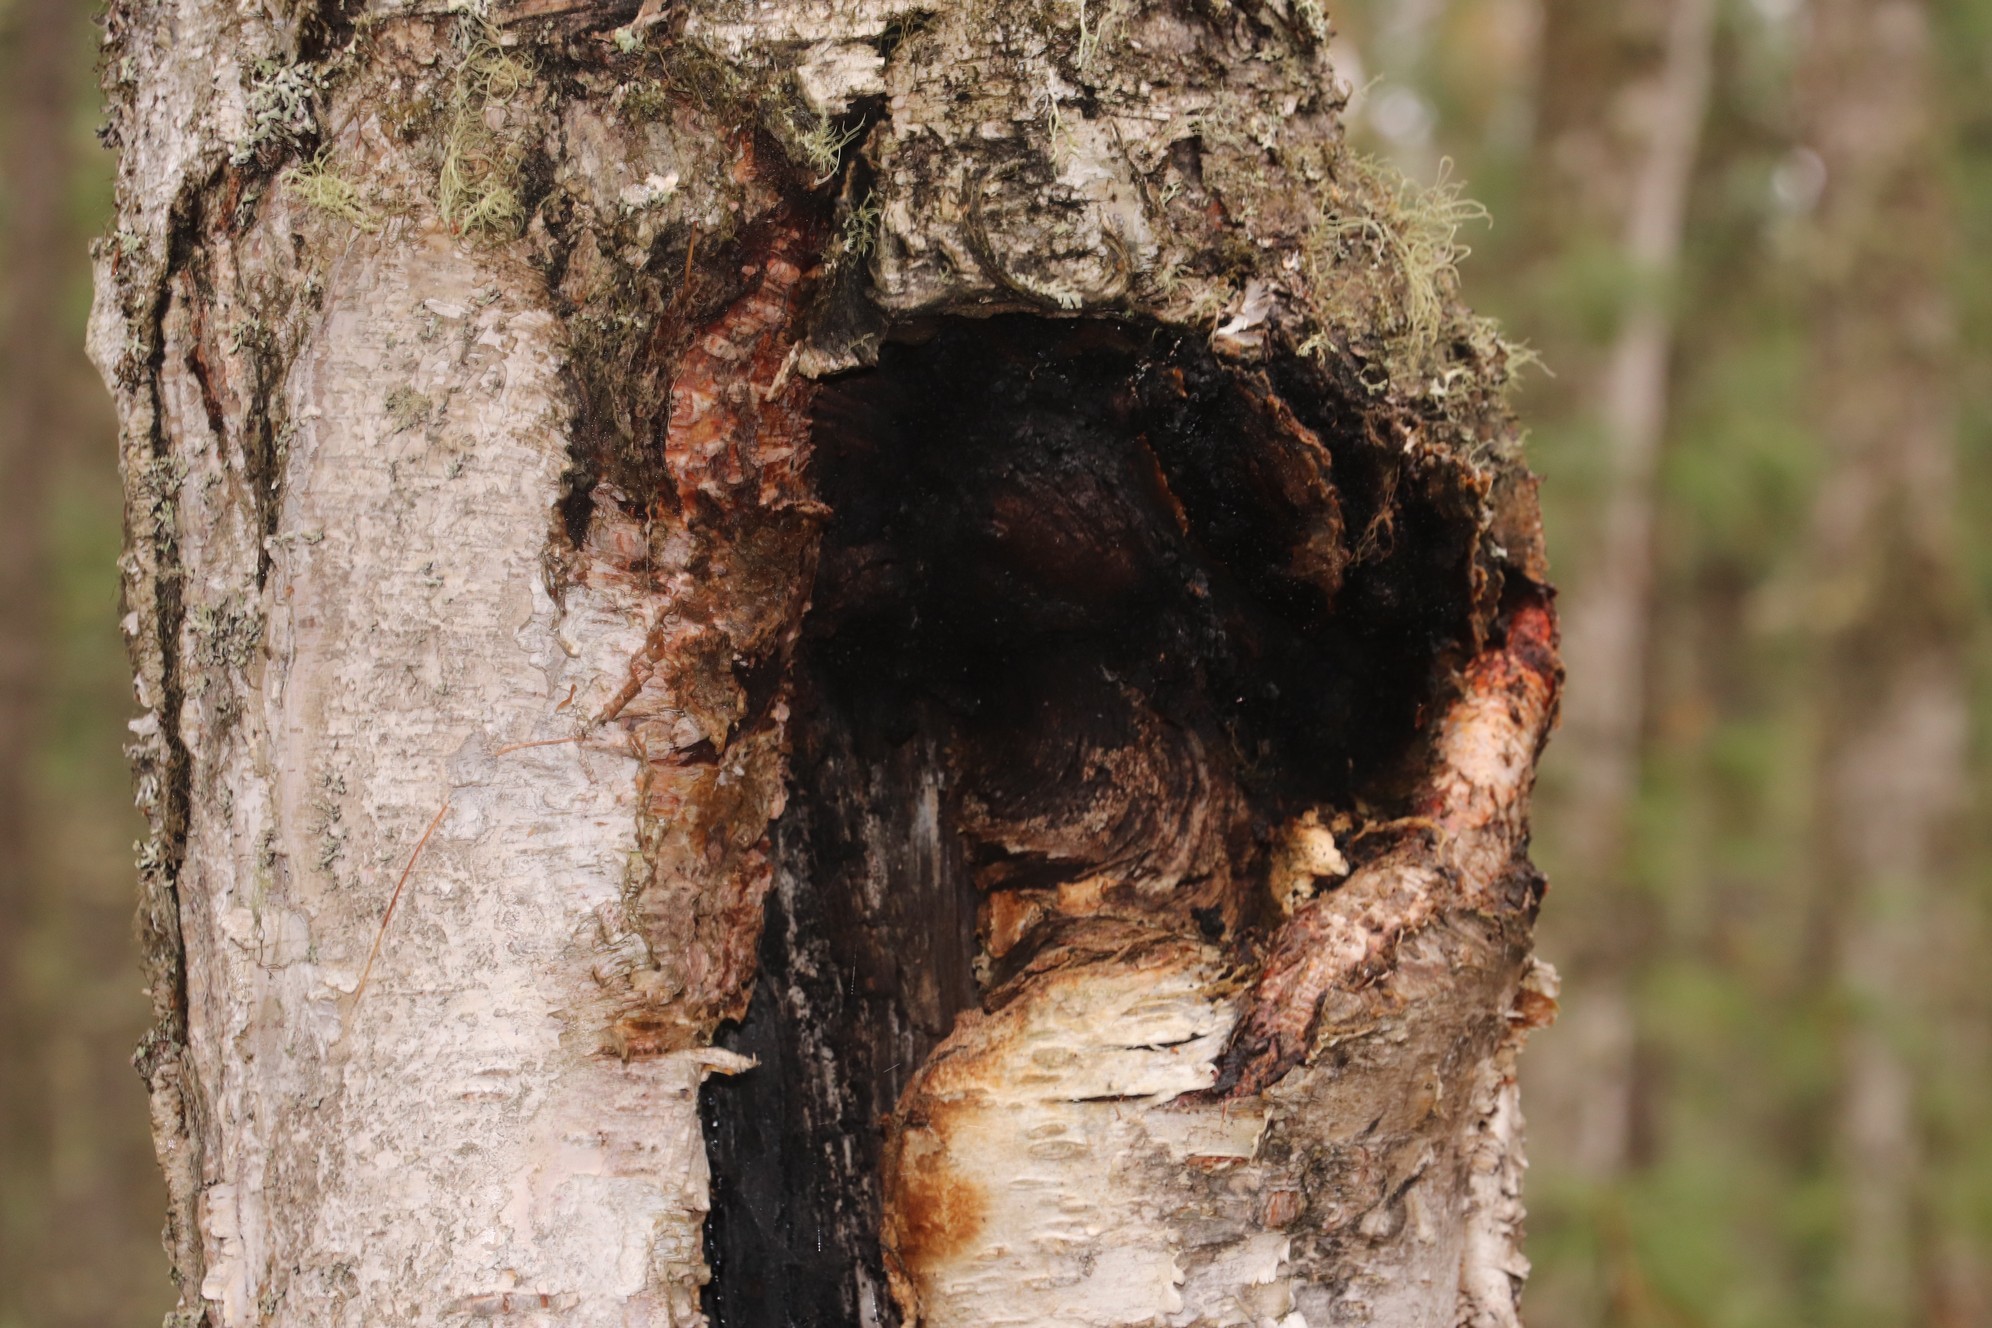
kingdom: Fungi
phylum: Basidiomycota
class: Agaricomycetes
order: Hymenochaetales
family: Hymenochaetaceae
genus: Inonotus
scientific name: Inonotus obliquus
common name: Chaga
